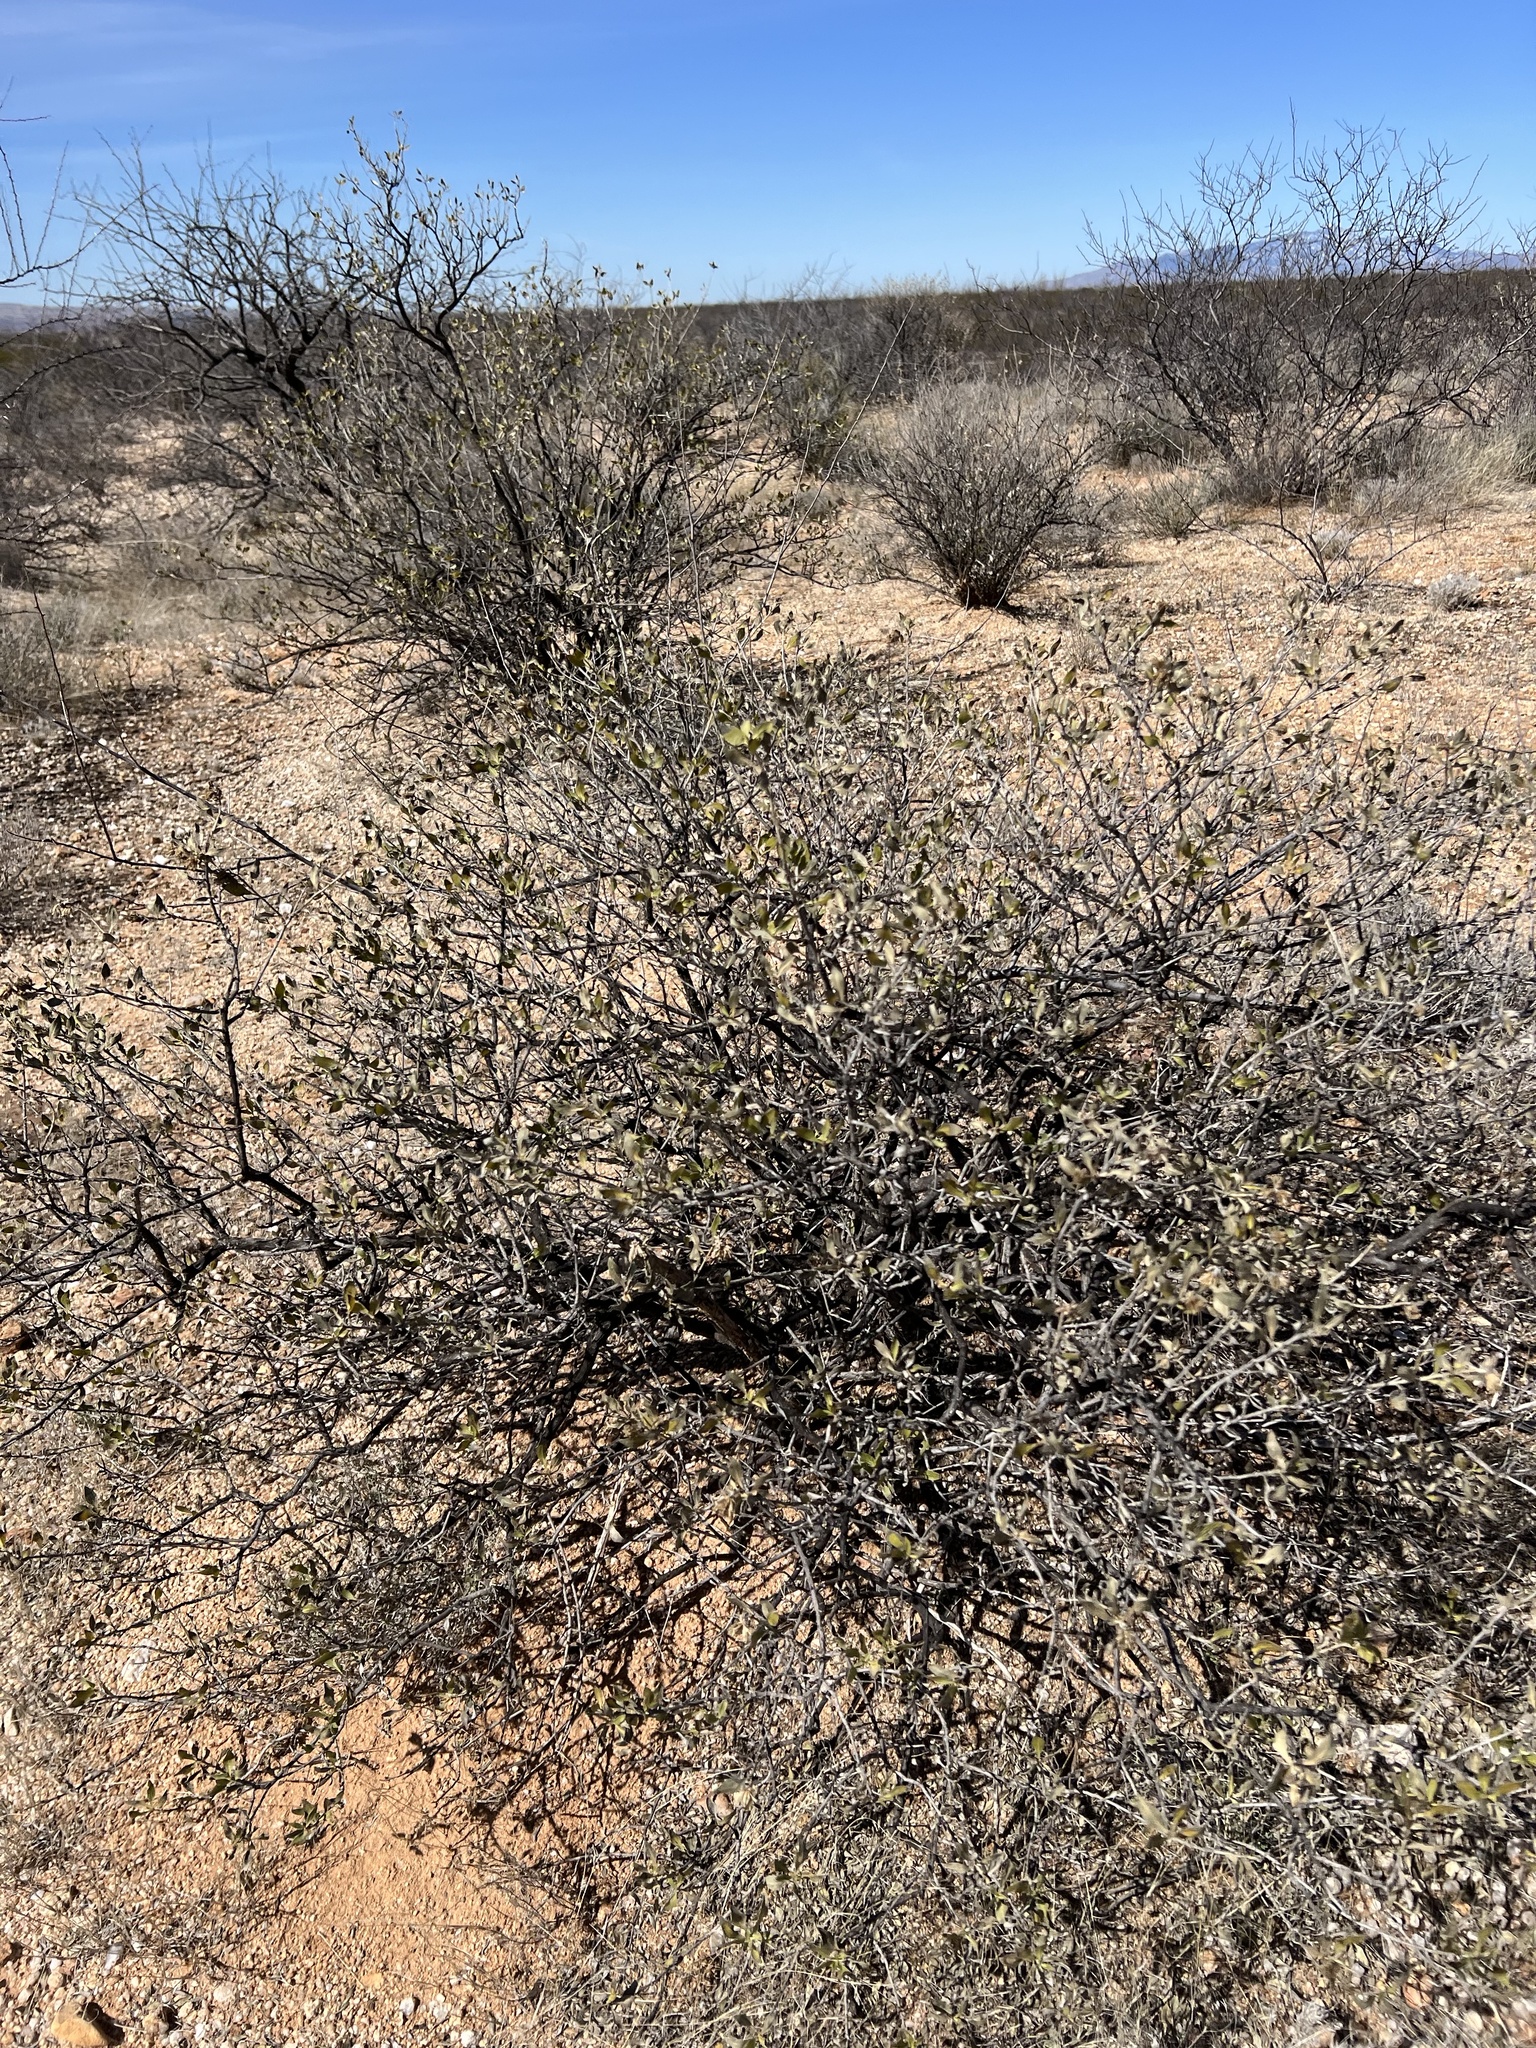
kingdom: Plantae
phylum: Tracheophyta
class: Magnoliopsida
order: Asterales
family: Asteraceae
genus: Flourensia
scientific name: Flourensia cernua
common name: Varnishbush
